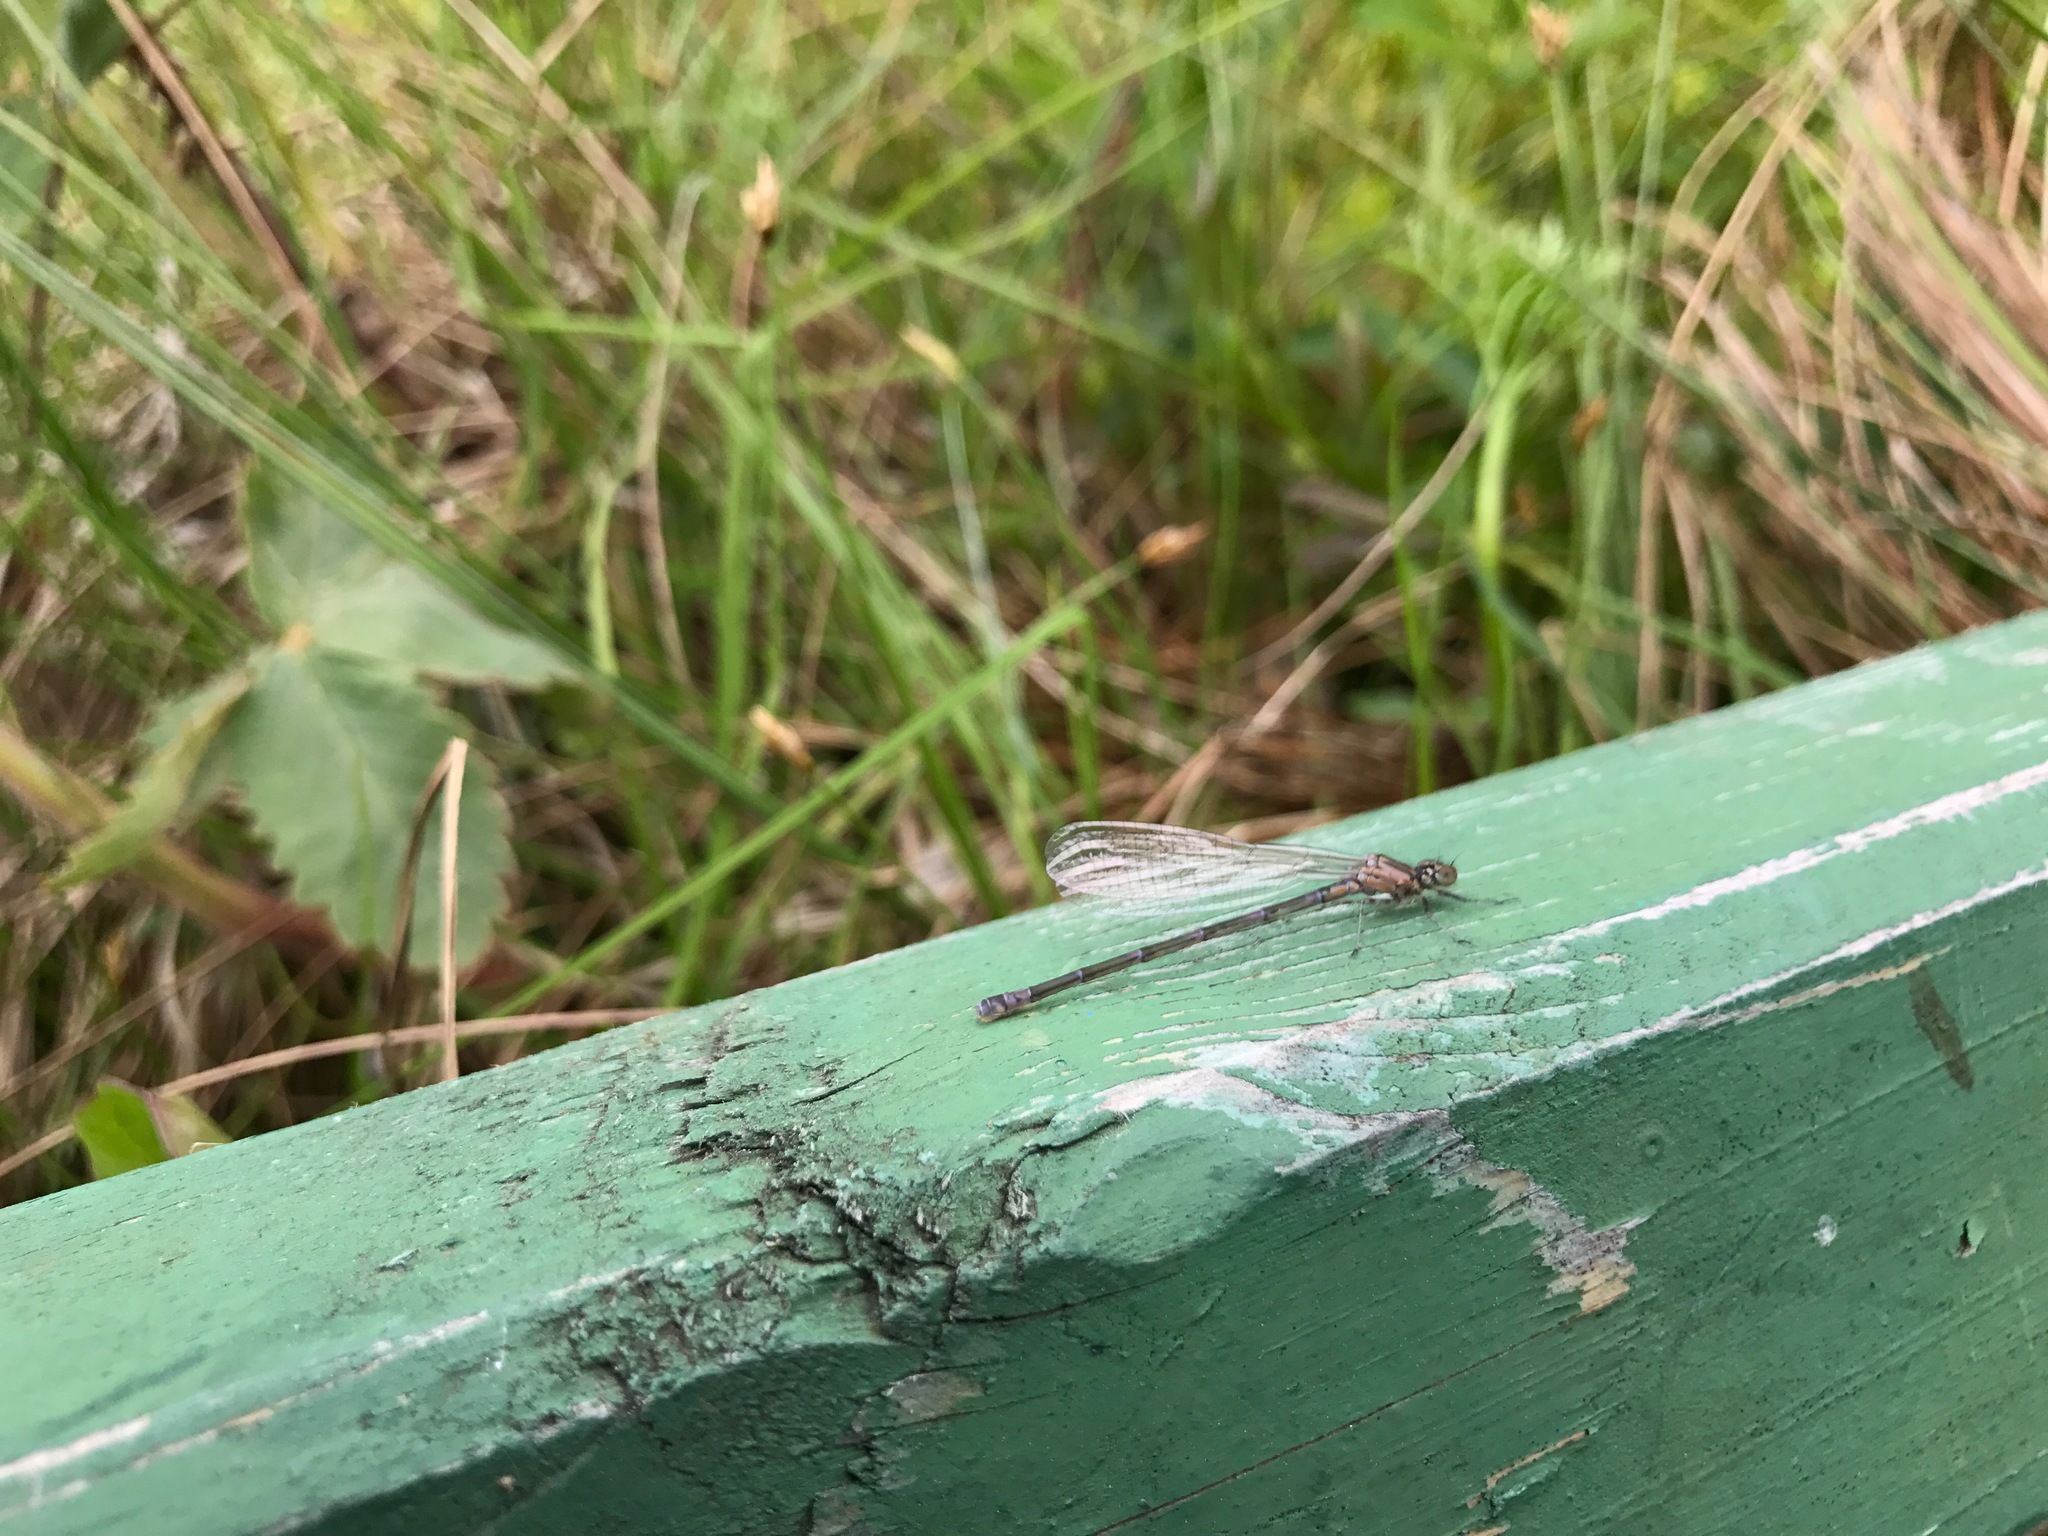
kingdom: Animalia
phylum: Arthropoda
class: Insecta
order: Odonata
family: Coenagrionidae
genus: Coenagrion
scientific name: Coenagrion pulchellum
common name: Variable bluet
